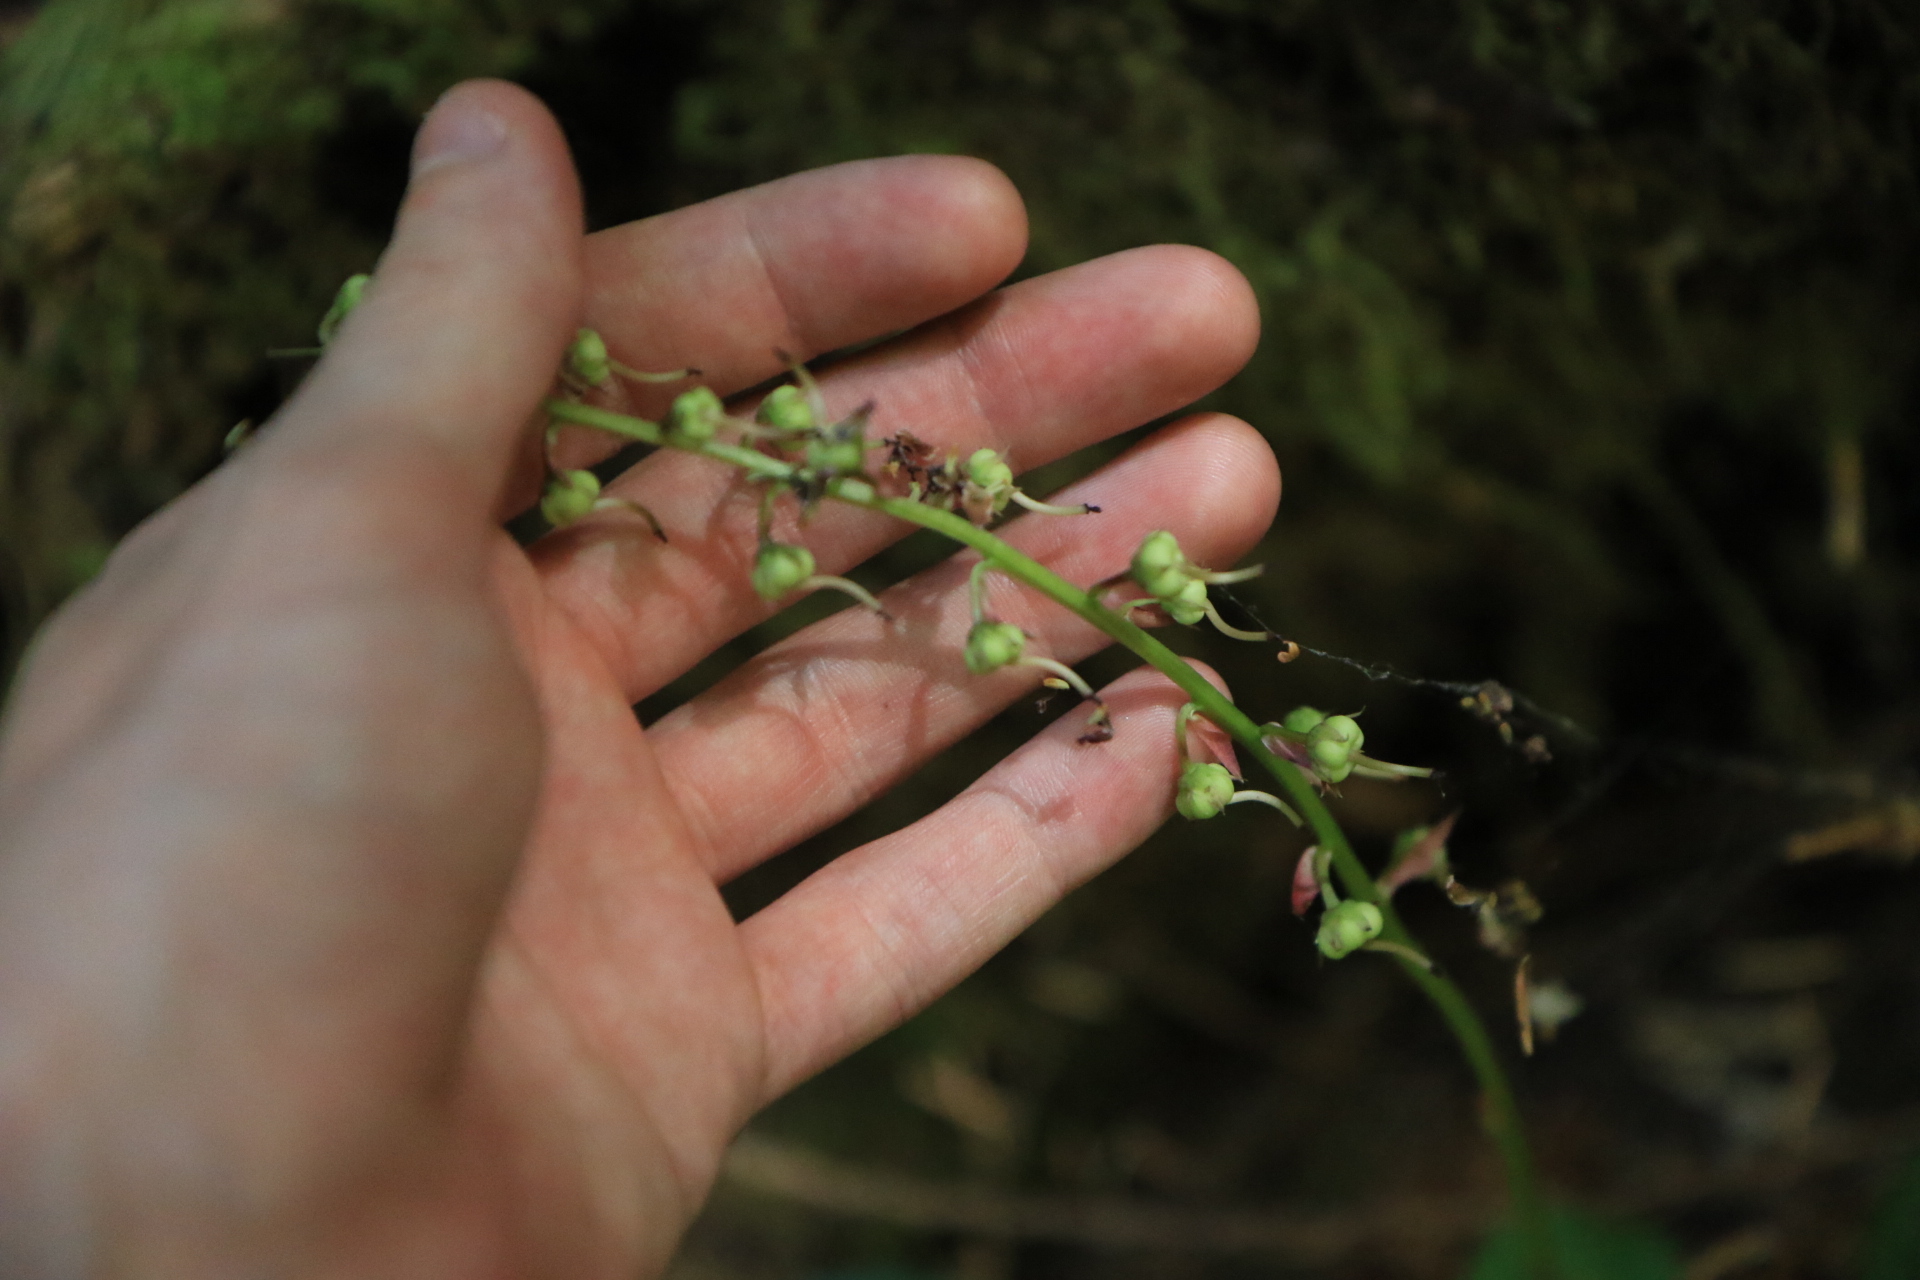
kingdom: Plantae
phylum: Tracheophyta
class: Magnoliopsida
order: Ericales
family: Ericaceae
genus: Pyrola
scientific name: Pyrola asarifolia
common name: Bog wintergreen
